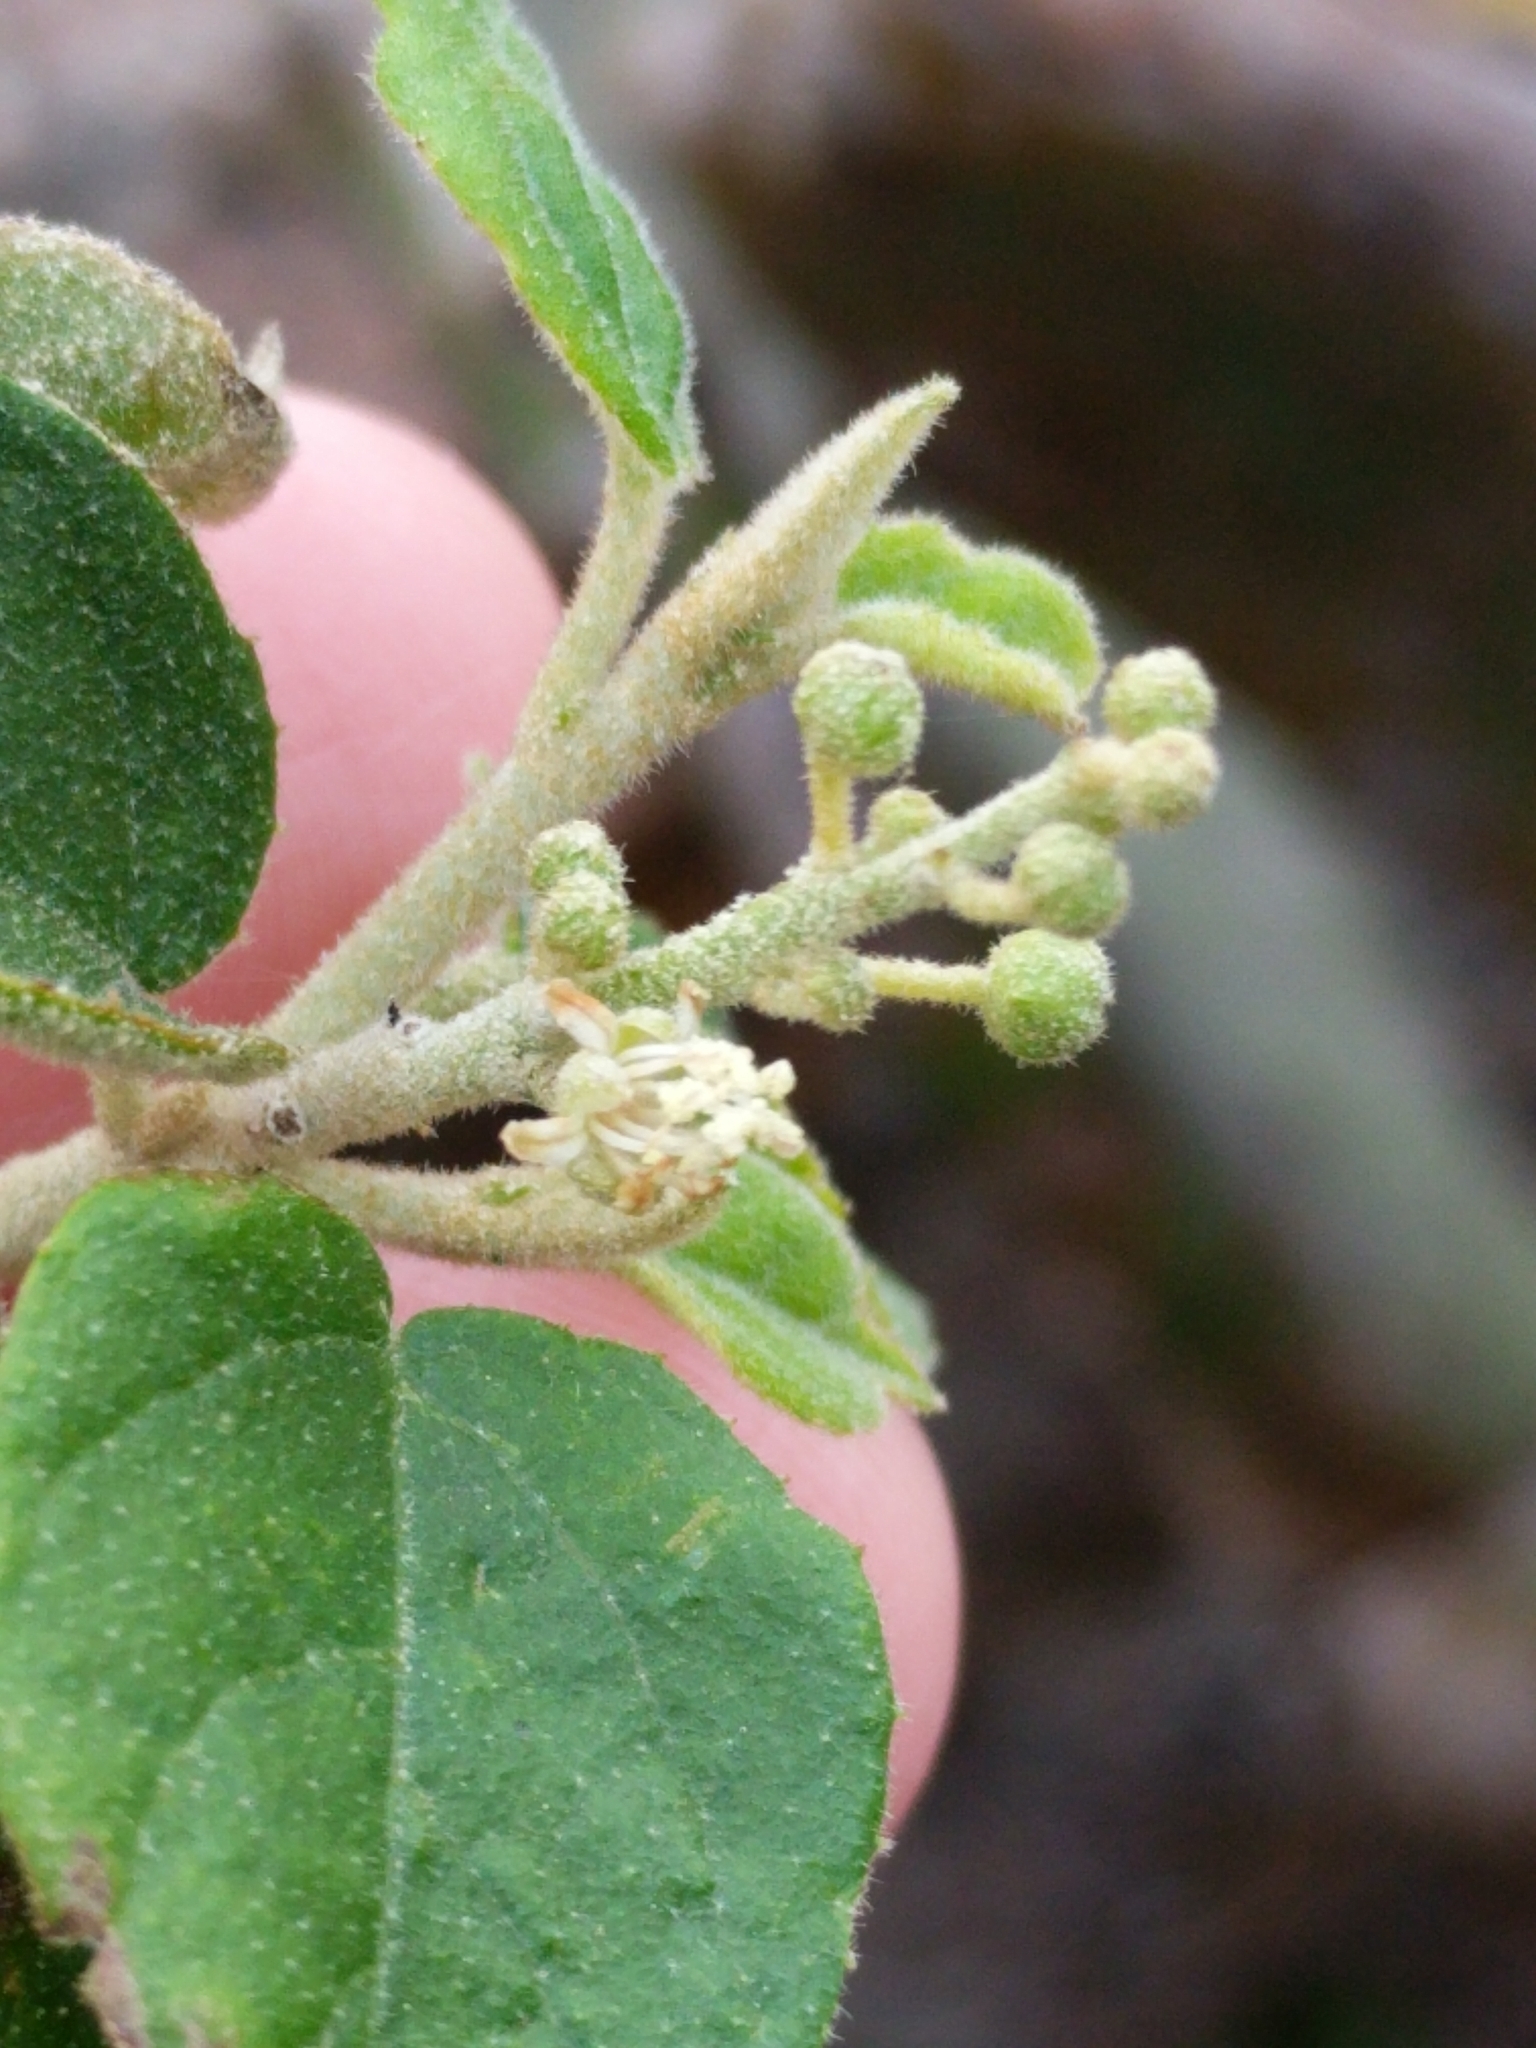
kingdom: Plantae
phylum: Tracheophyta
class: Magnoliopsida
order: Malpighiales
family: Euphorbiaceae
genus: Croton
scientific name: Croton fruticulosus
